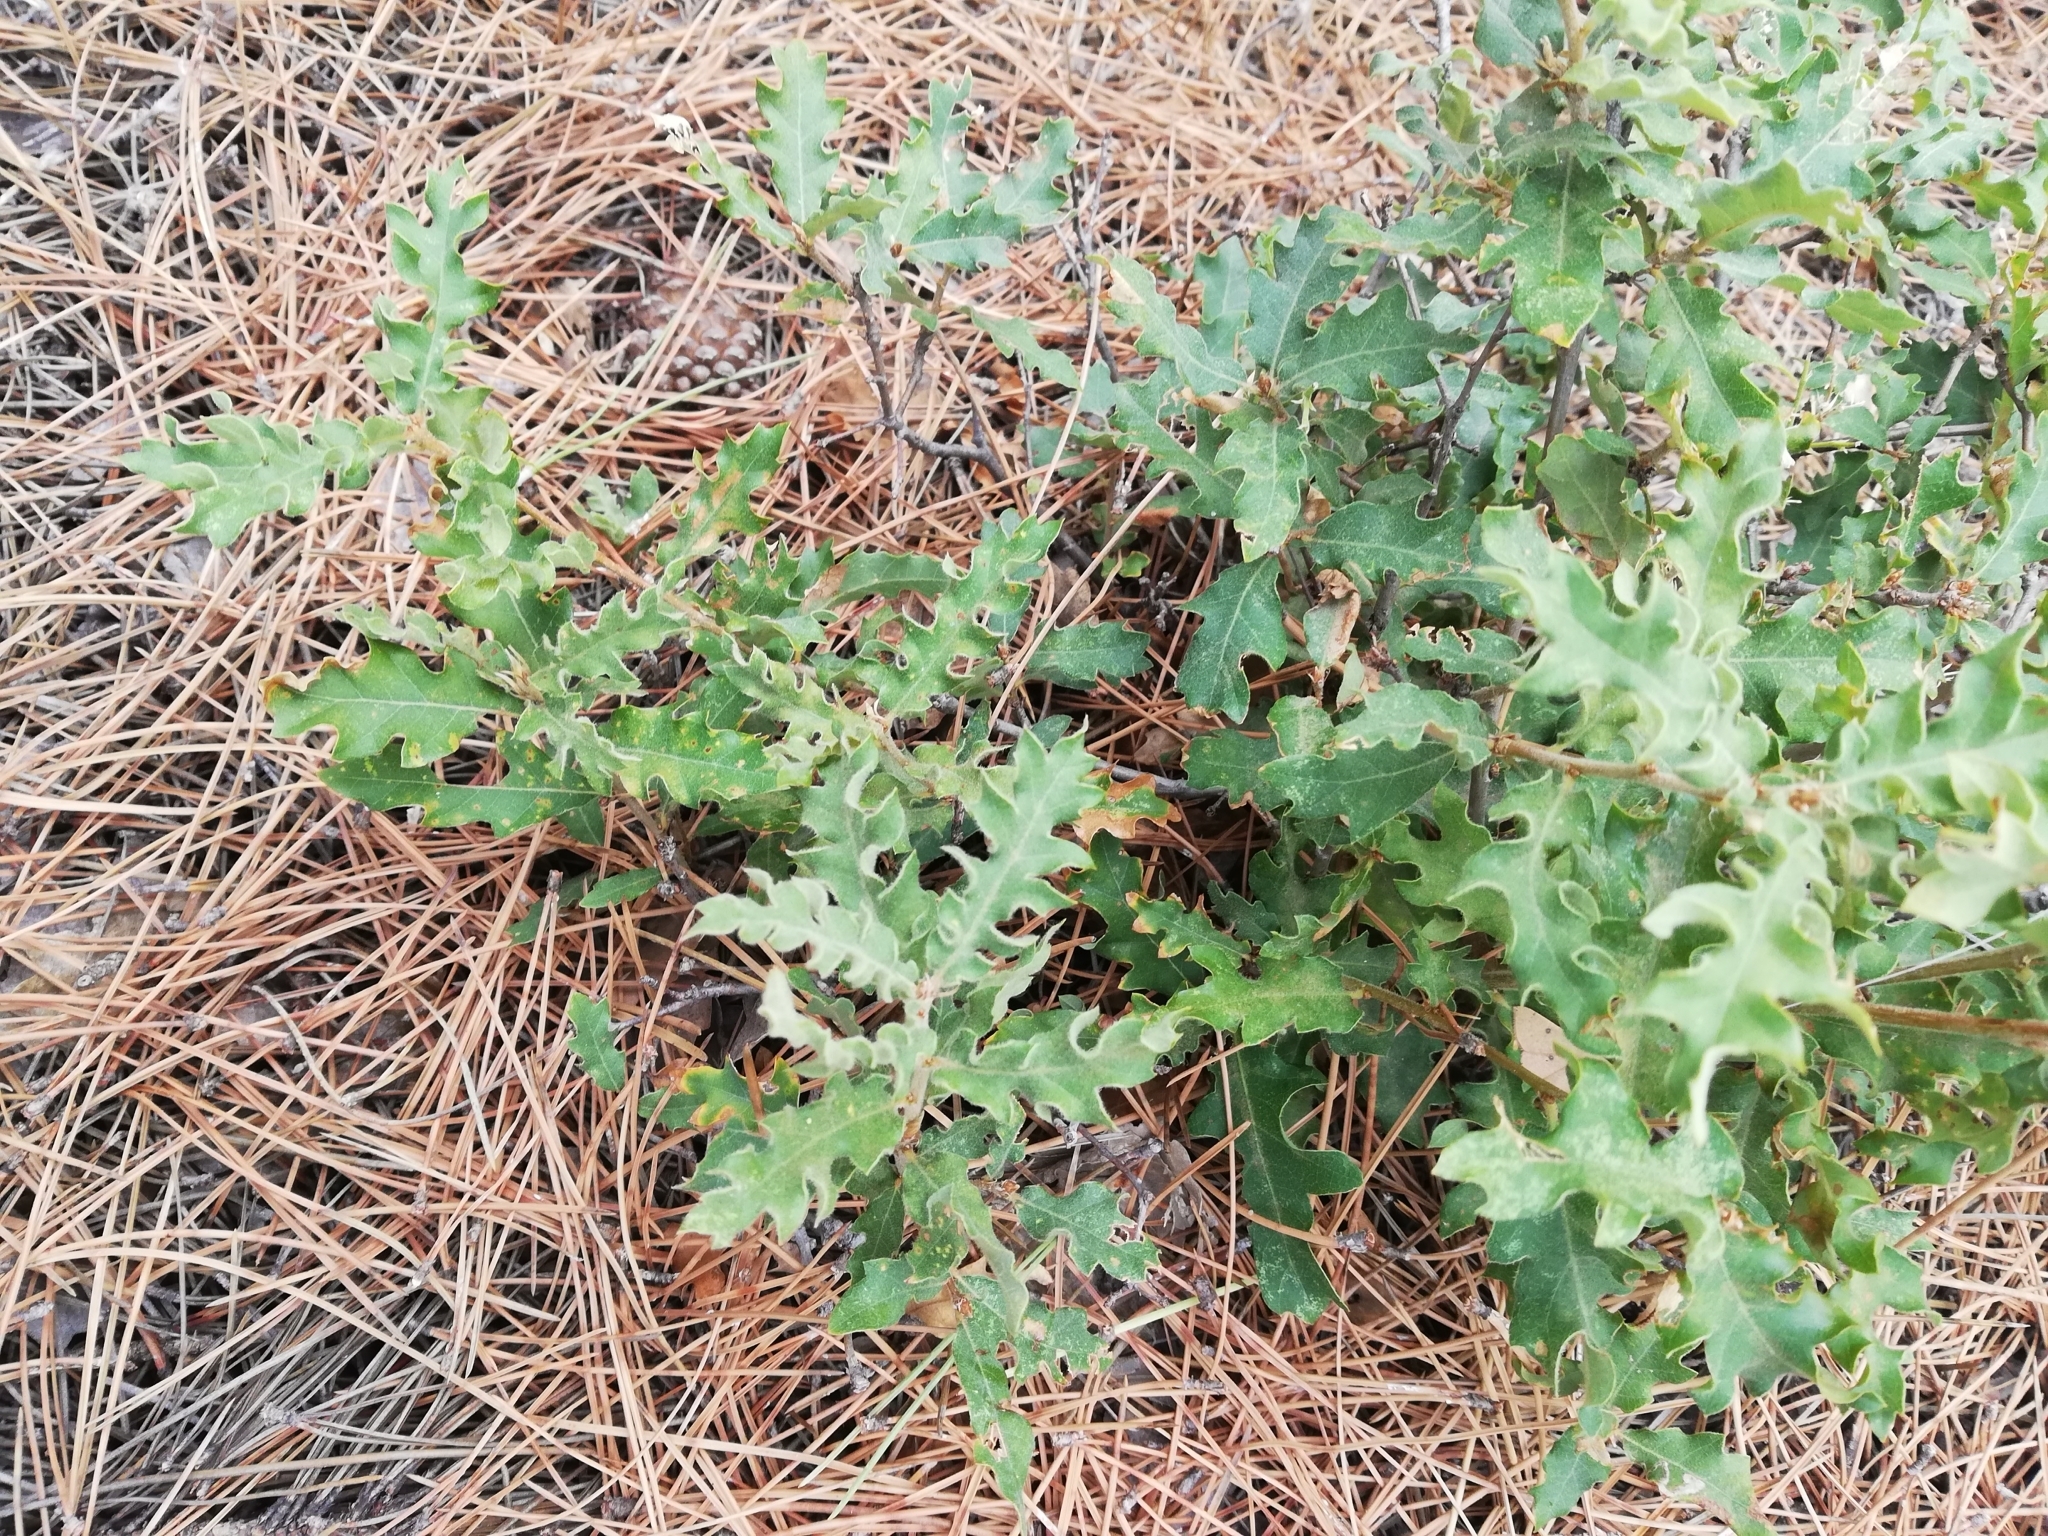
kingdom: Plantae
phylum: Tracheophyta
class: Magnoliopsida
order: Fagales
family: Fagaceae
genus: Quercus
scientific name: Quercus pubescens
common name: Downy oak
